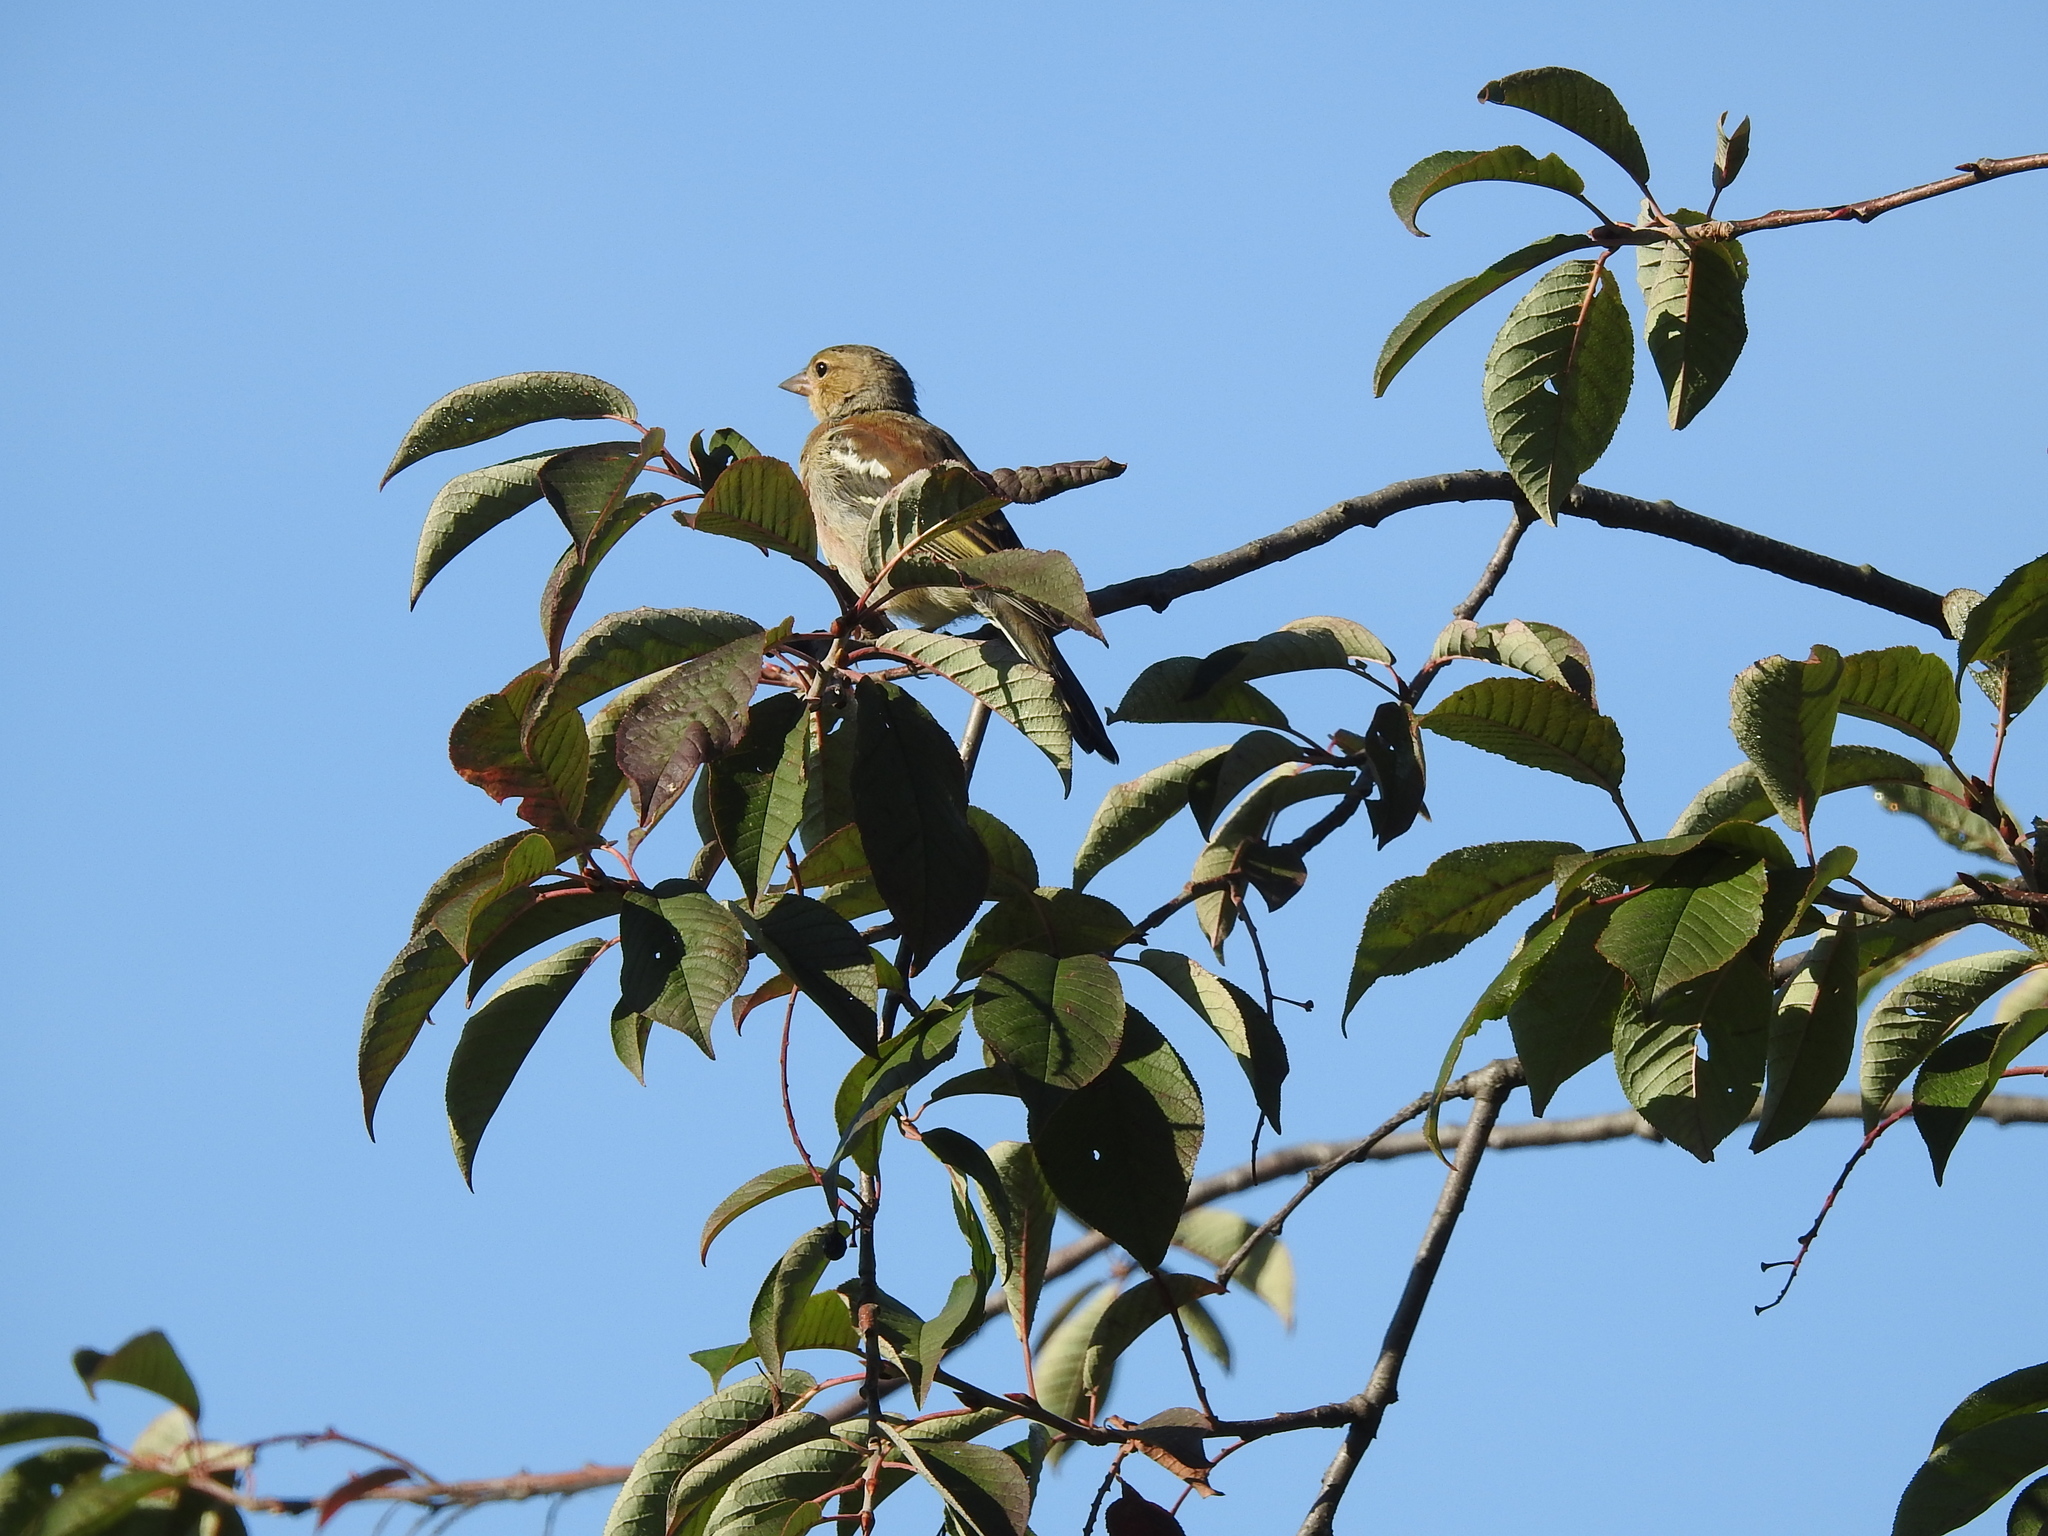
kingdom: Animalia
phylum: Chordata
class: Aves
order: Passeriformes
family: Fringillidae
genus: Fringilla
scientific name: Fringilla coelebs
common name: Common chaffinch
